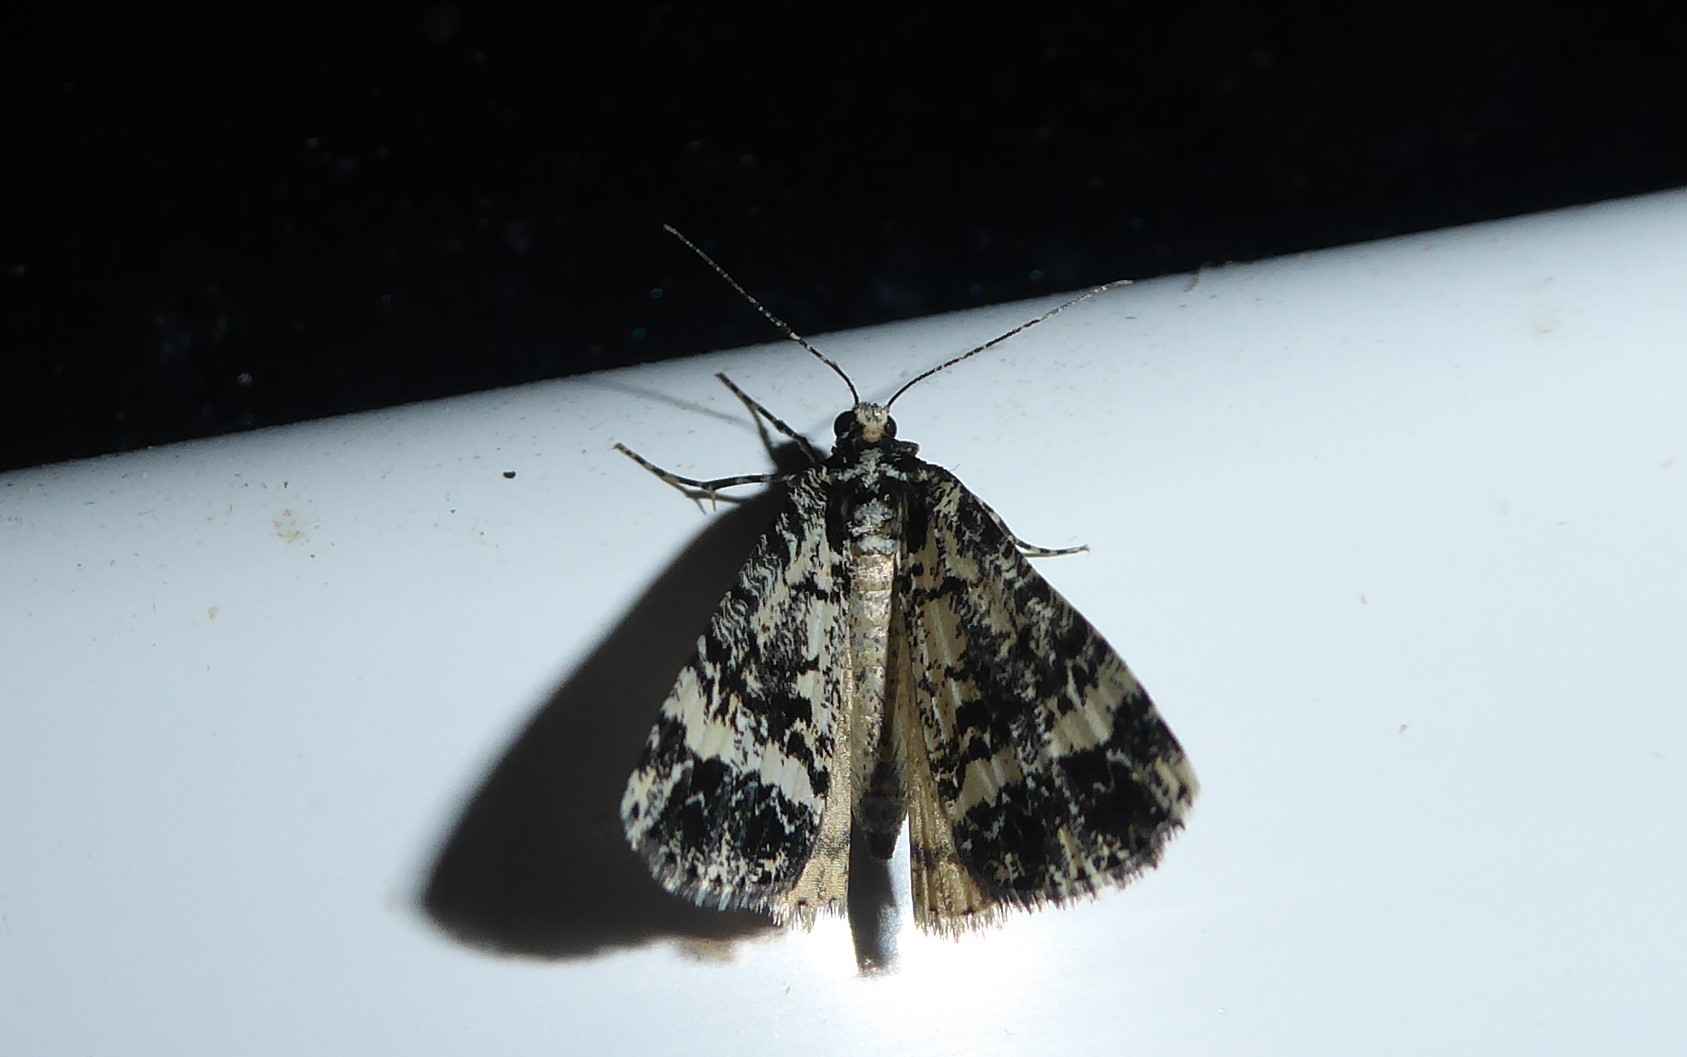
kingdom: Animalia
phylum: Arthropoda
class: Insecta
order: Lepidoptera
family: Geometridae
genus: Pseudocoremia
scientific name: Pseudocoremia leucelaea
